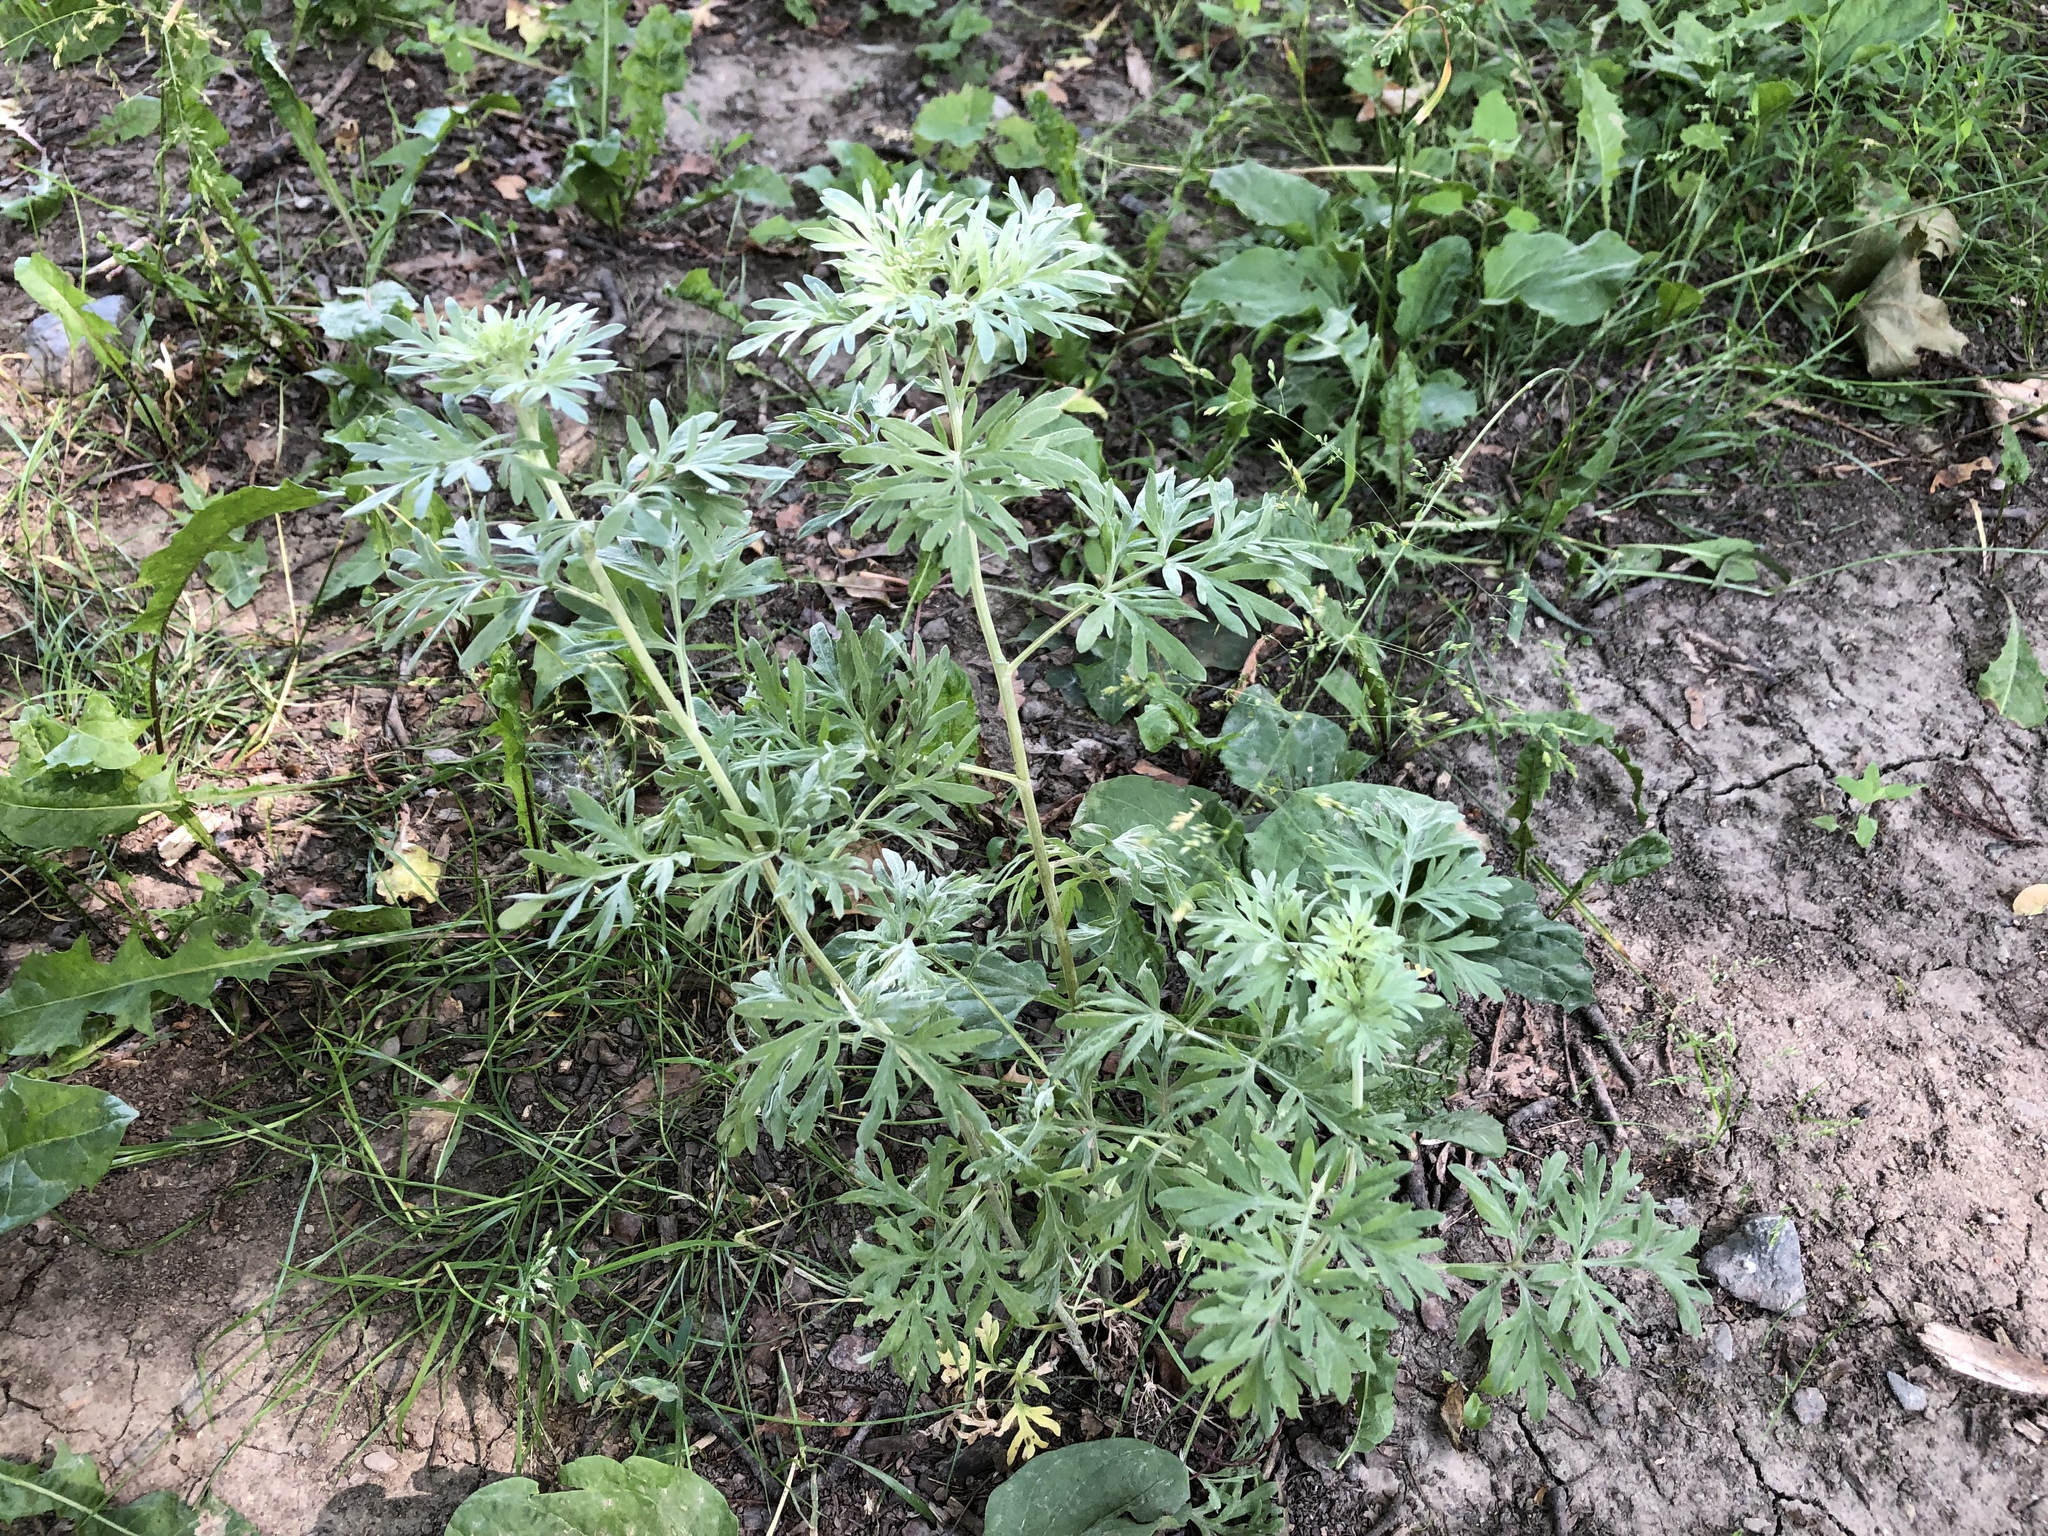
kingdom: Plantae
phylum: Tracheophyta
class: Magnoliopsida
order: Asterales
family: Asteraceae
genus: Artemisia
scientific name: Artemisia absinthium
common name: Wormwood
